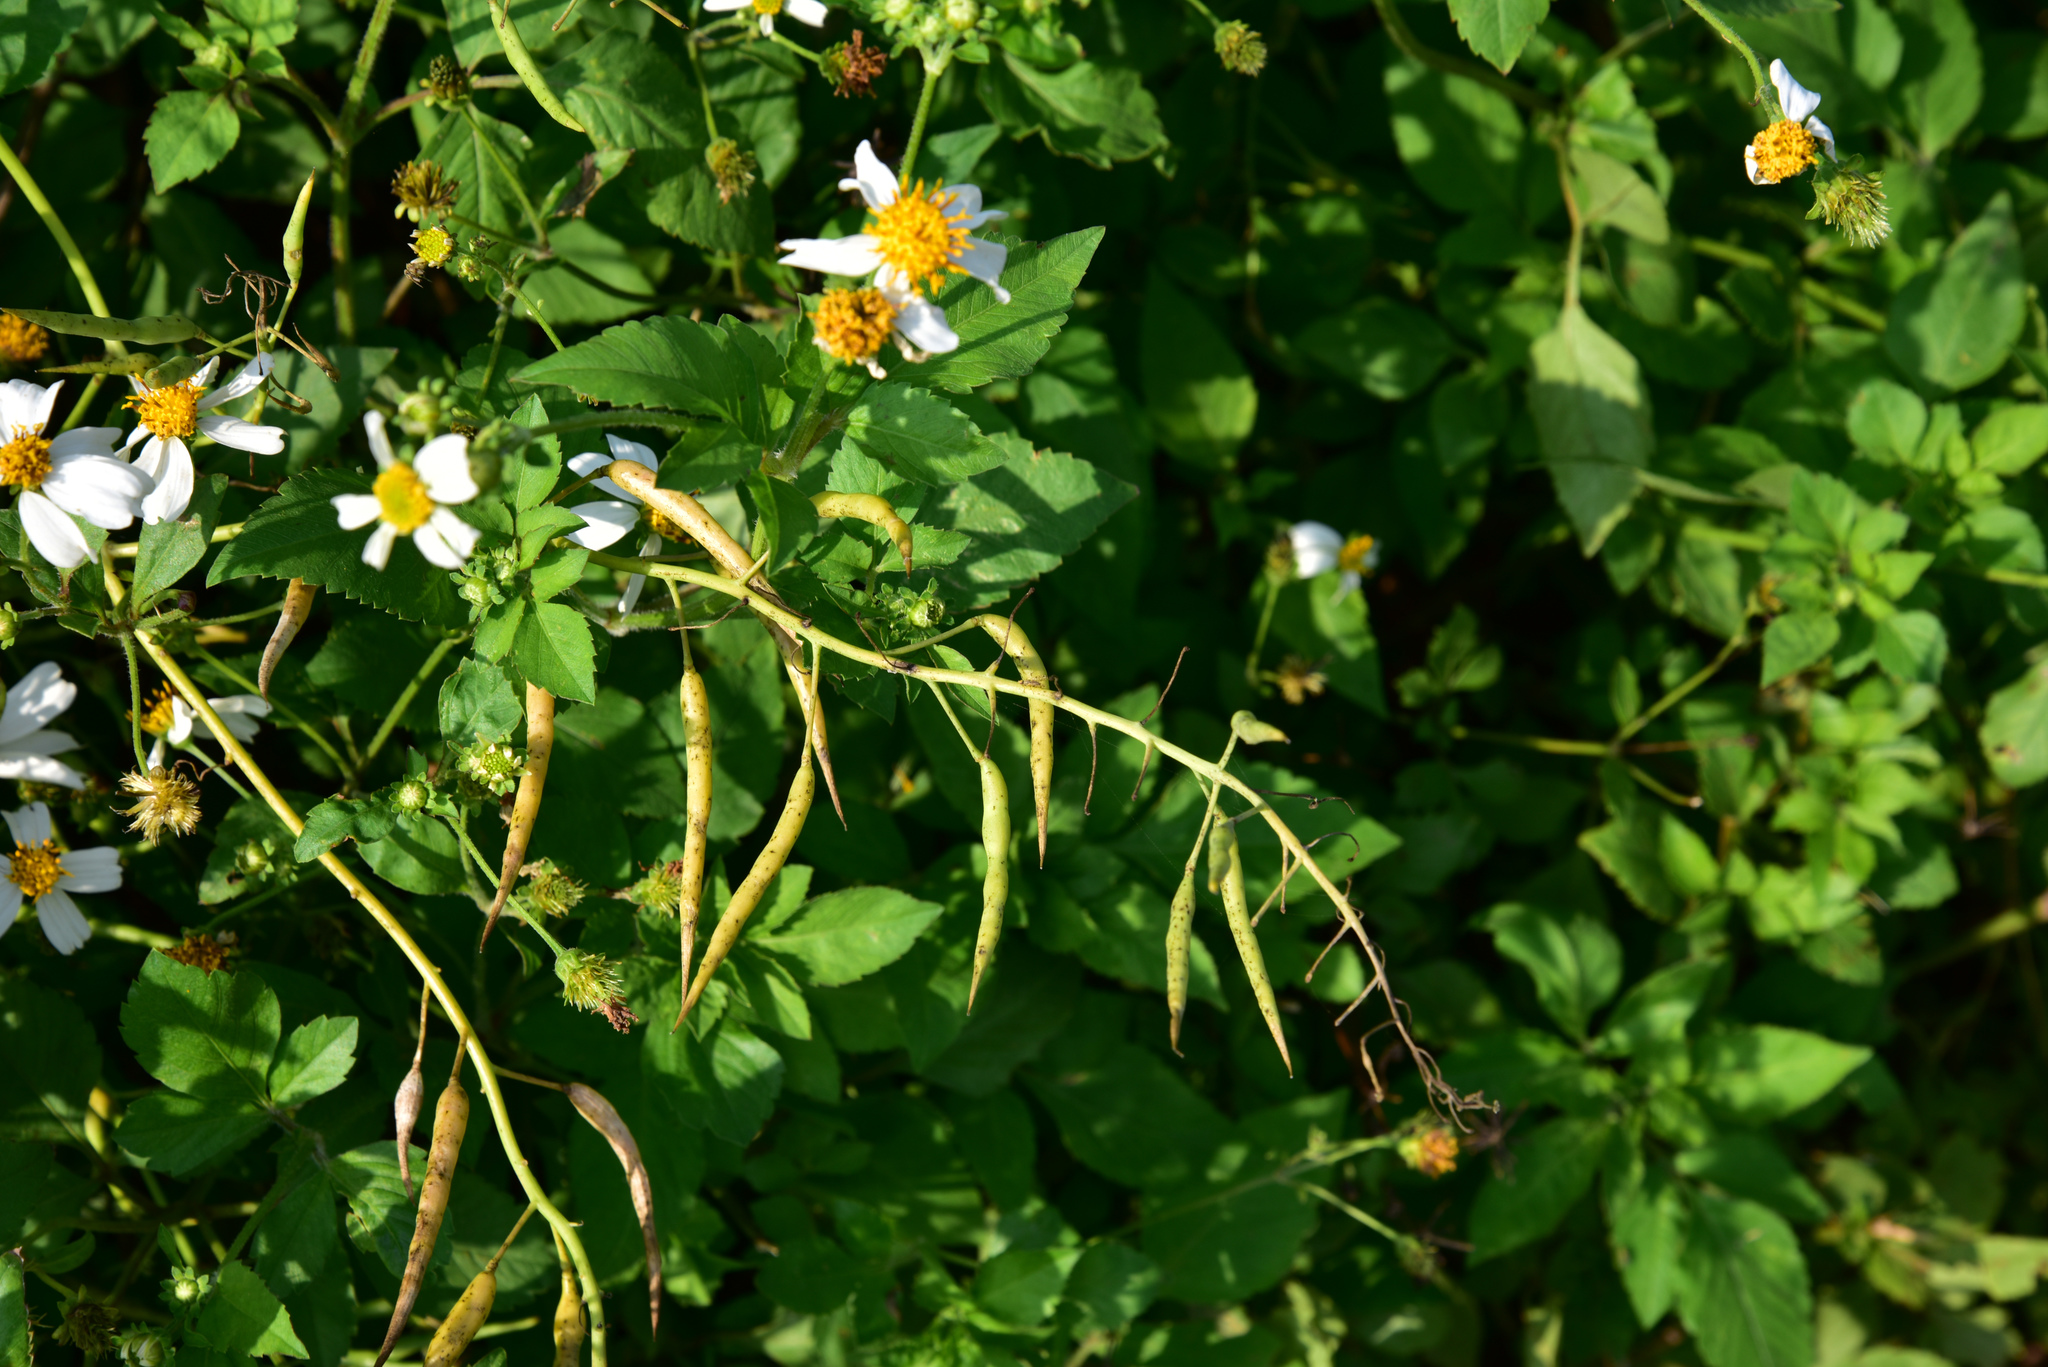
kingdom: Plantae
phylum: Tracheophyta
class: Magnoliopsida
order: Brassicales
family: Brassicaceae
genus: Raphanus
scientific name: Raphanus sativus
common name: Cultivated radish
